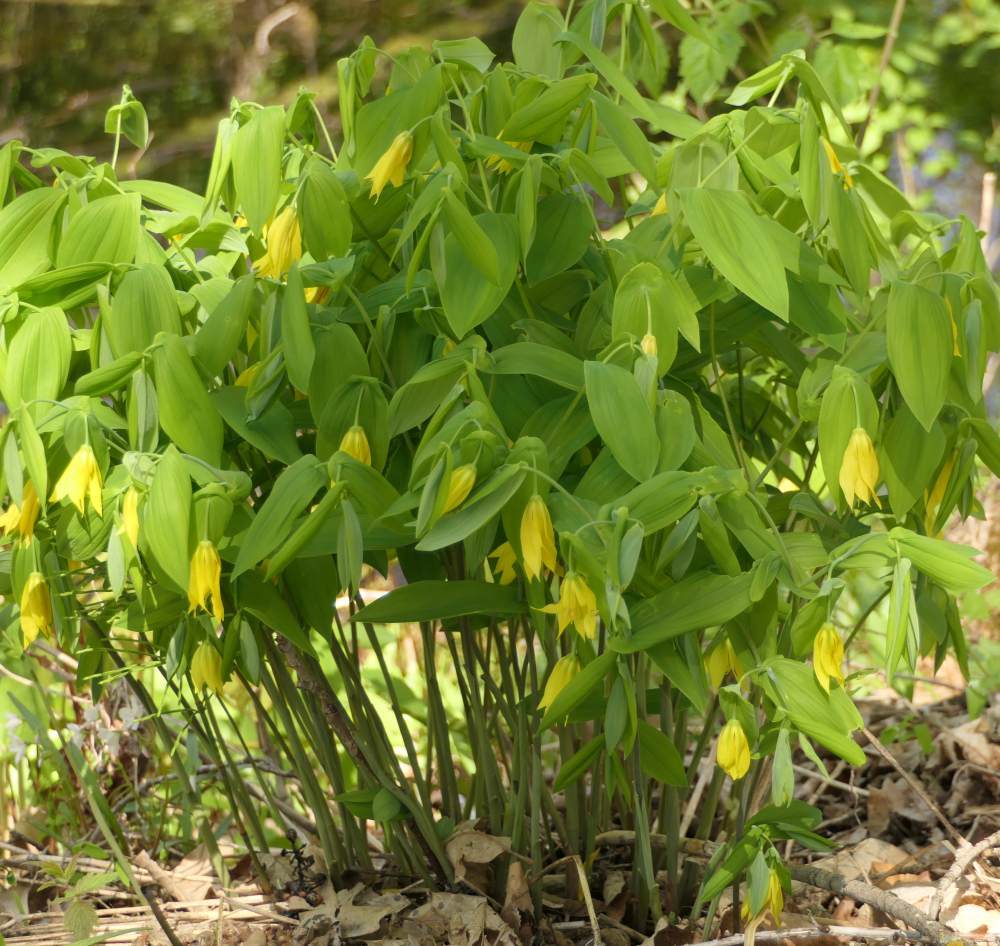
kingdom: Plantae
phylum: Tracheophyta
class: Liliopsida
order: Liliales
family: Colchicaceae
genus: Uvularia
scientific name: Uvularia grandiflora
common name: Bellwort
